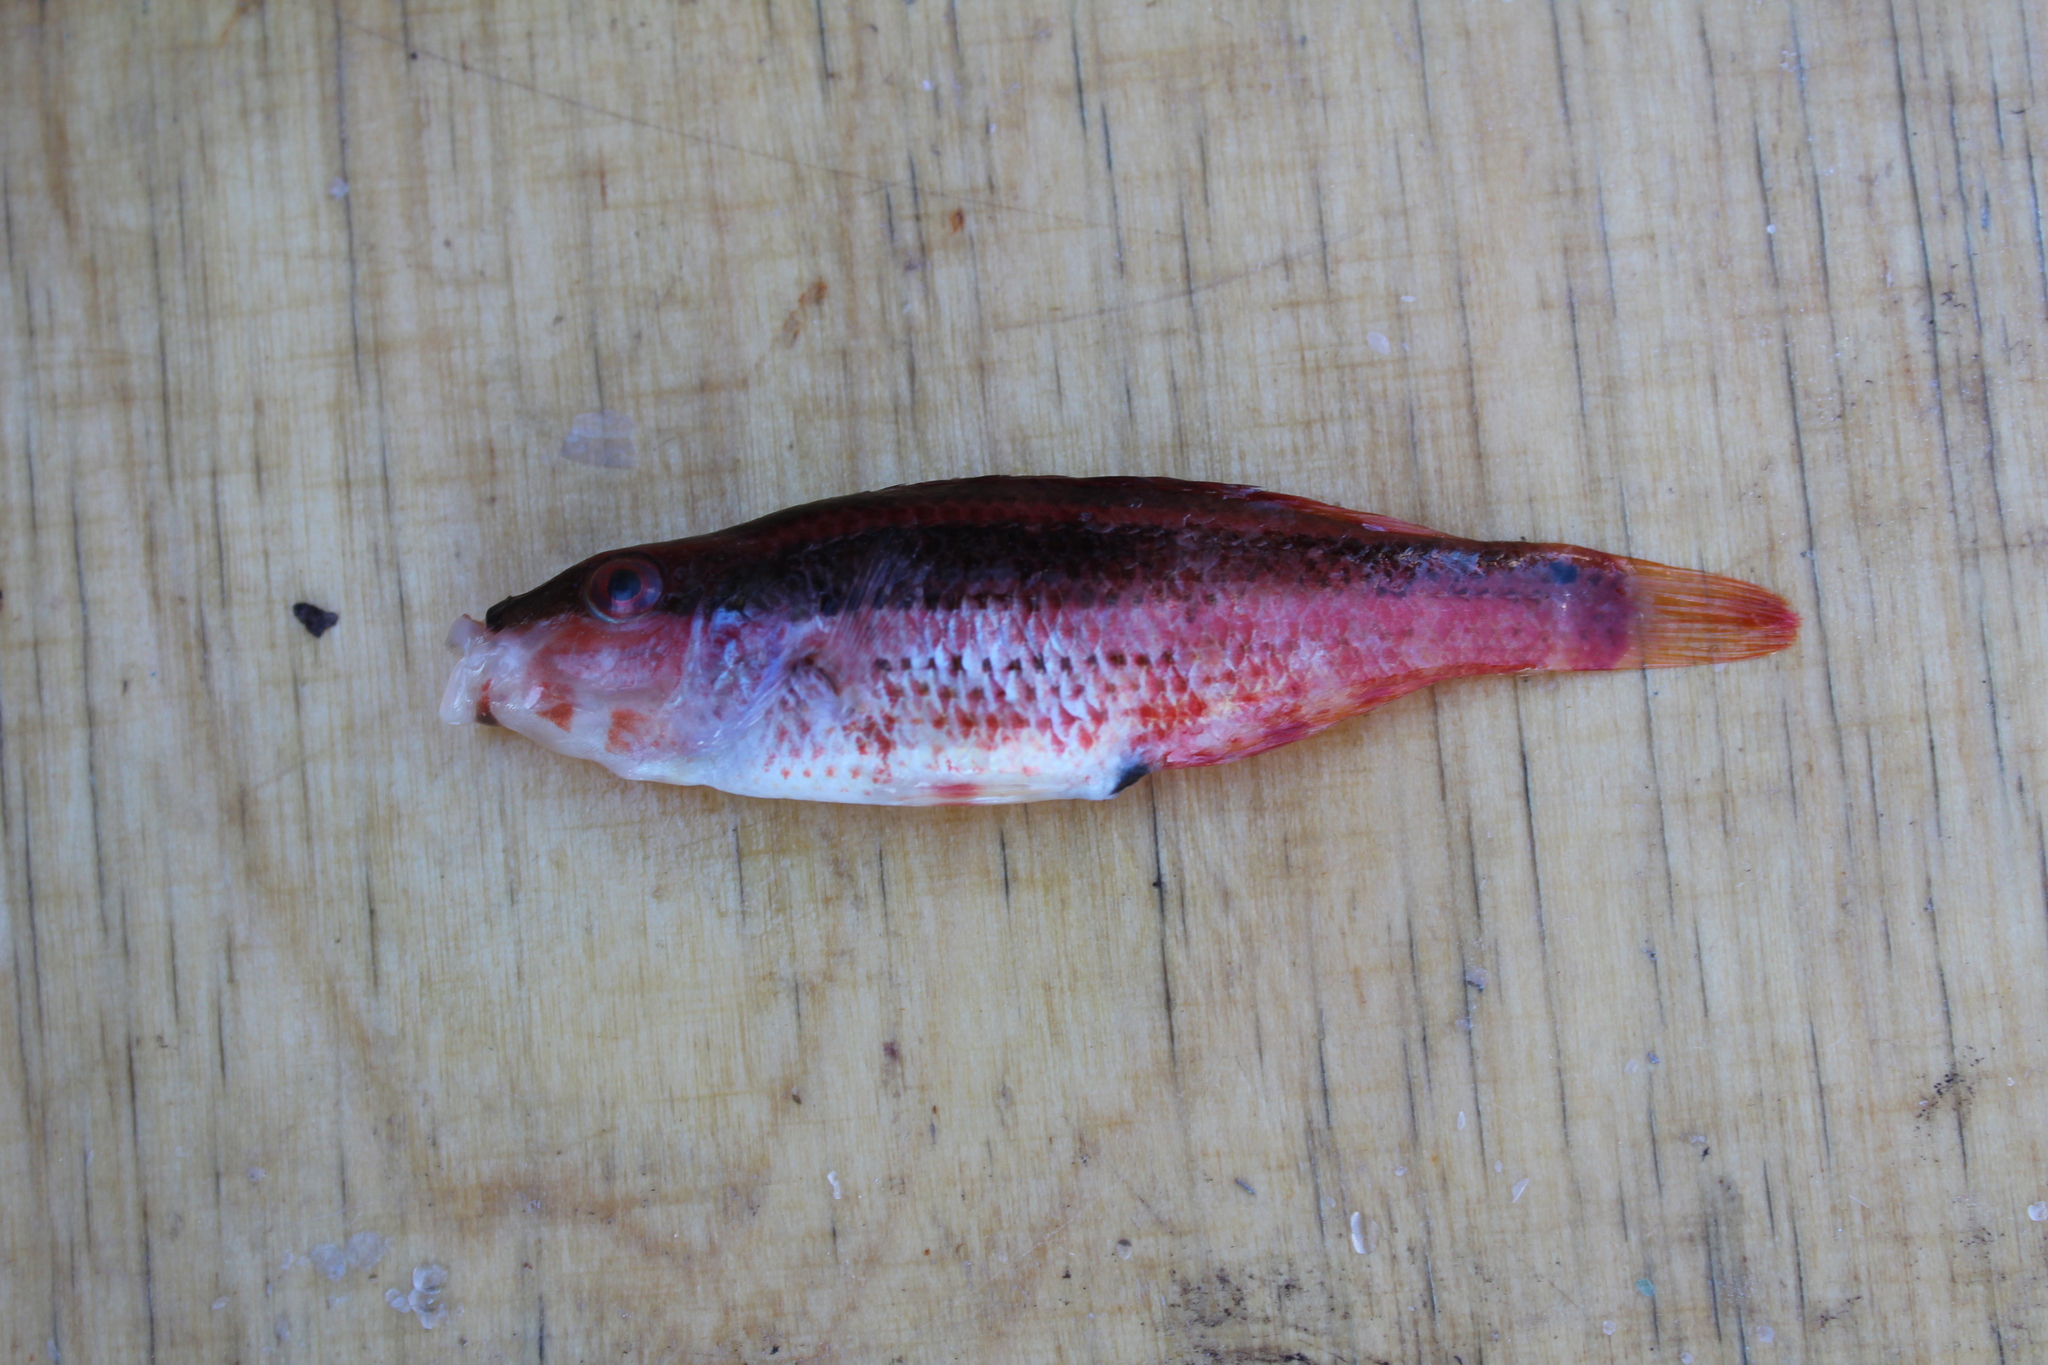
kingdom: Animalia
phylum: Chordata
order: Perciformes
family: Labridae
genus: Symphodus
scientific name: Symphodus doderleini
